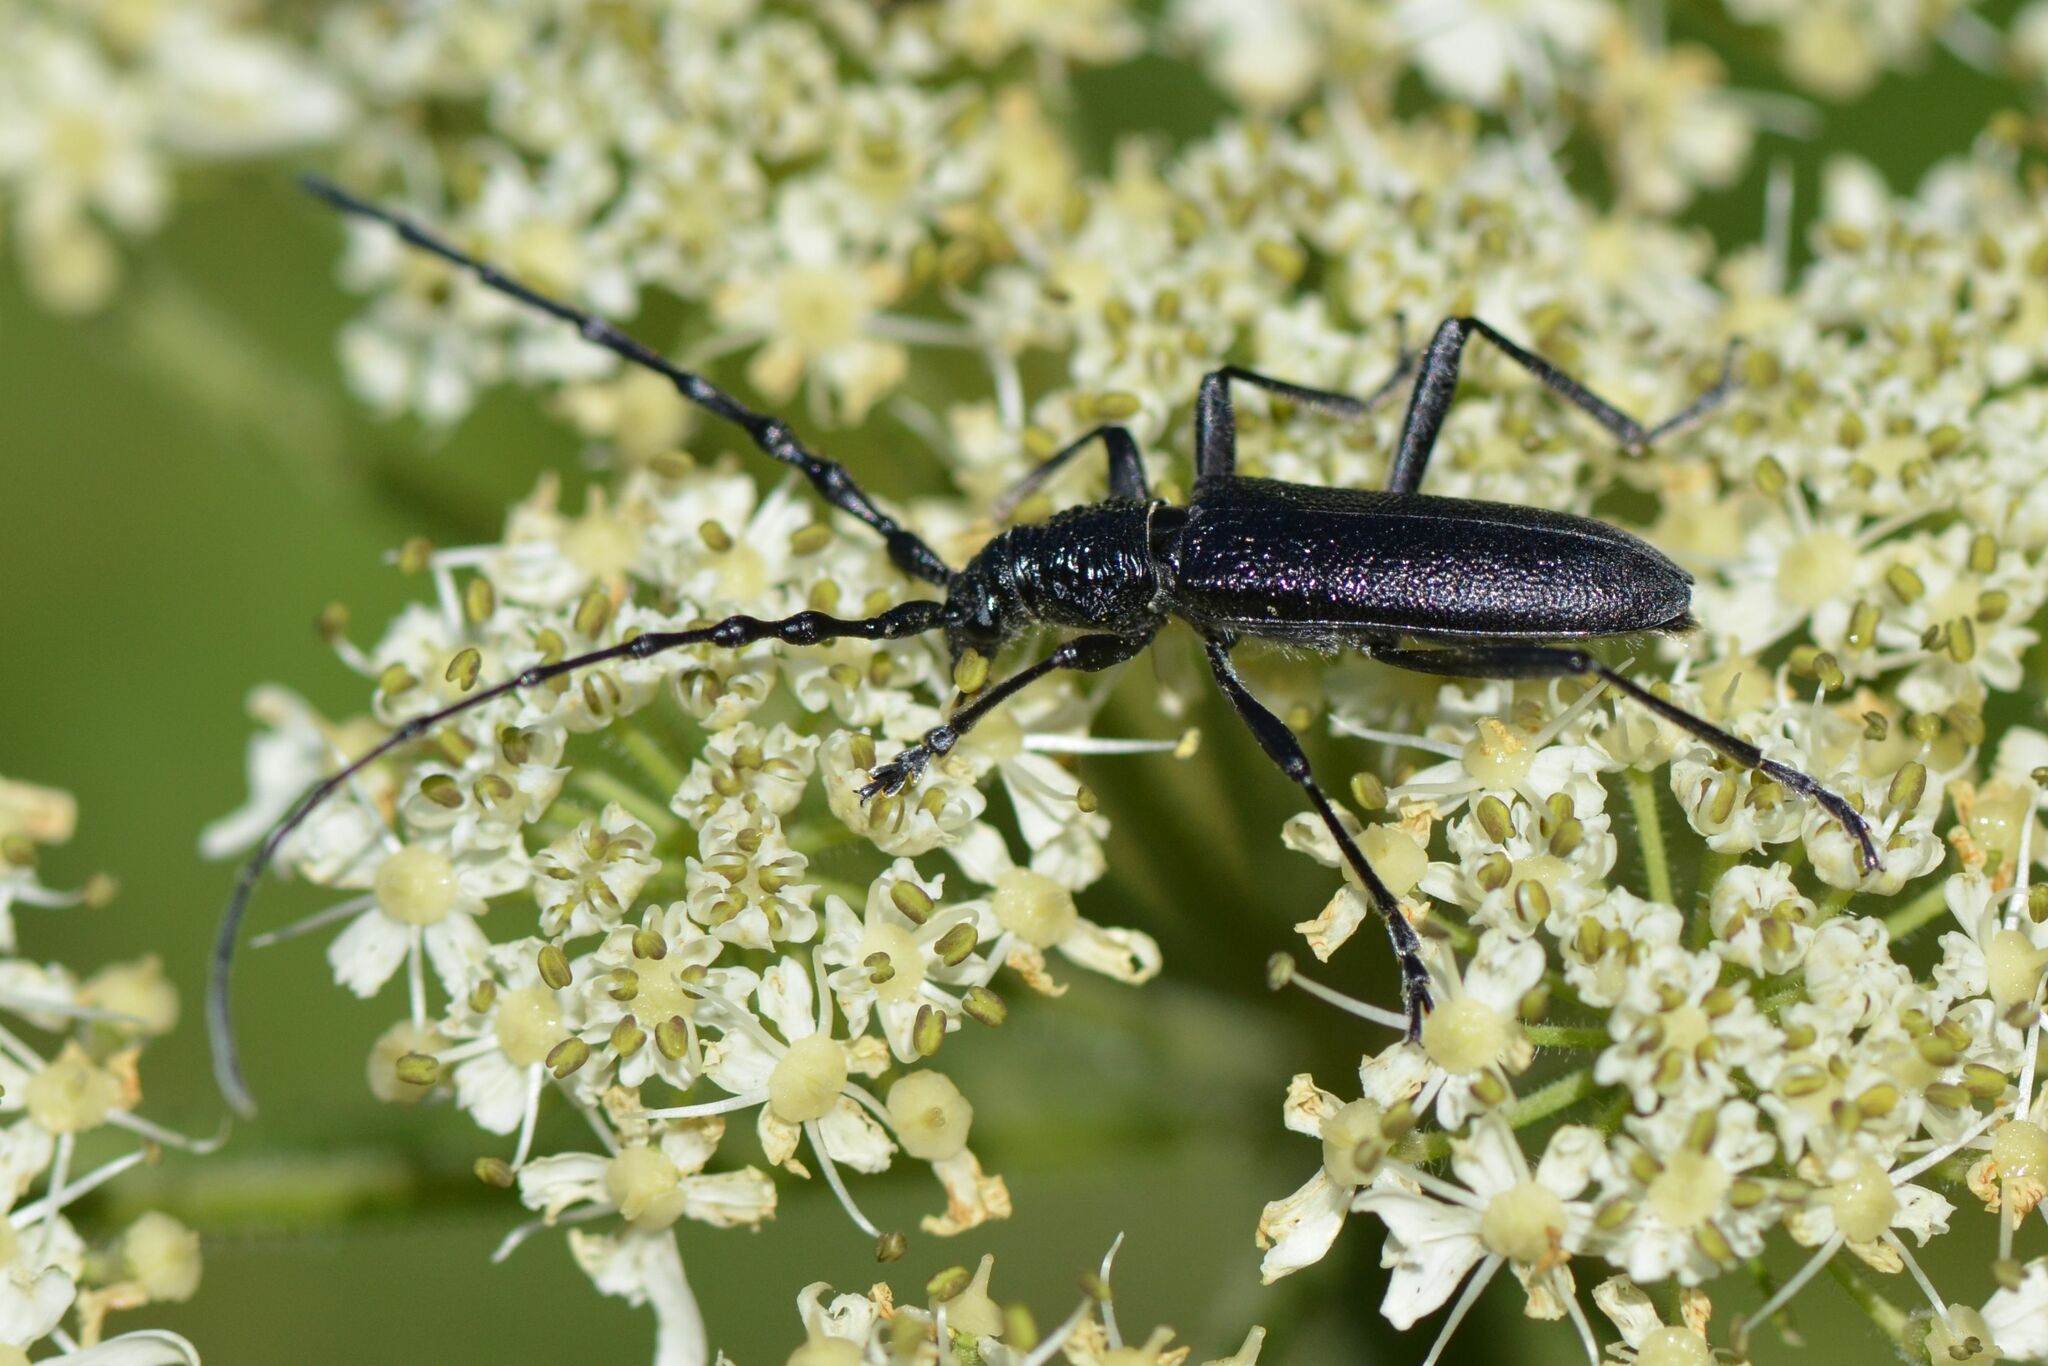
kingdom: Animalia
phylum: Arthropoda
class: Insecta
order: Coleoptera
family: Cerambycidae
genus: Cerambyx
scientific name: Cerambyx scopolii
